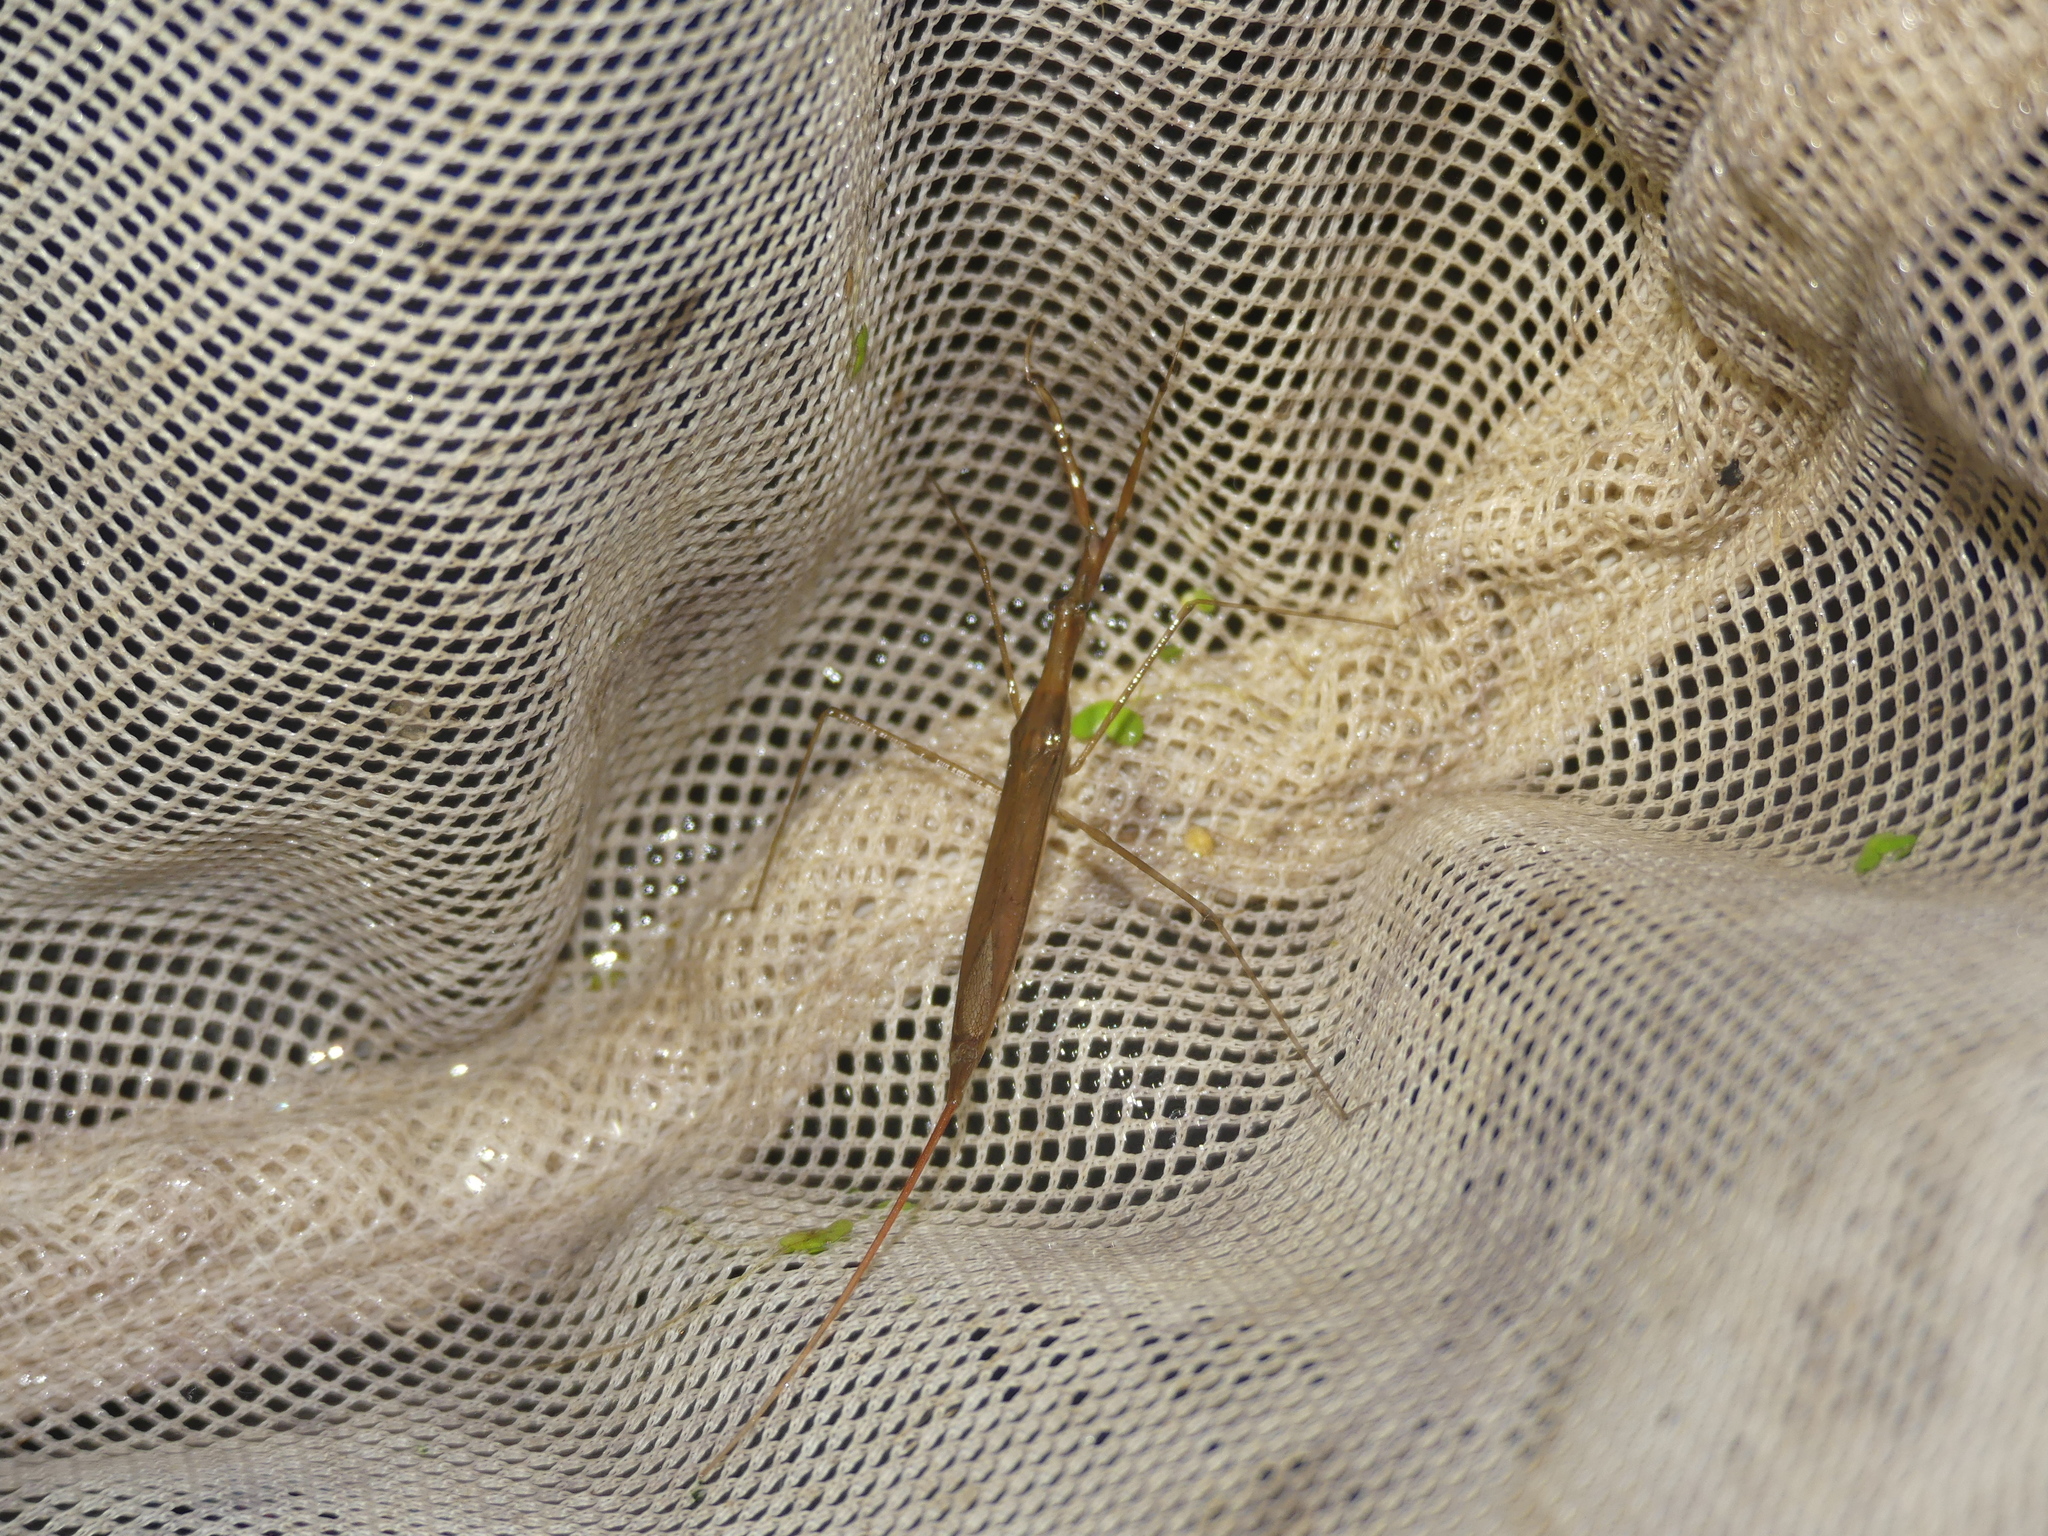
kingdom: Animalia
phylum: Arthropoda
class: Insecta
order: Hemiptera
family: Nepidae
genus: Ranatra
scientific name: Ranatra linearis
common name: Water stick insect
